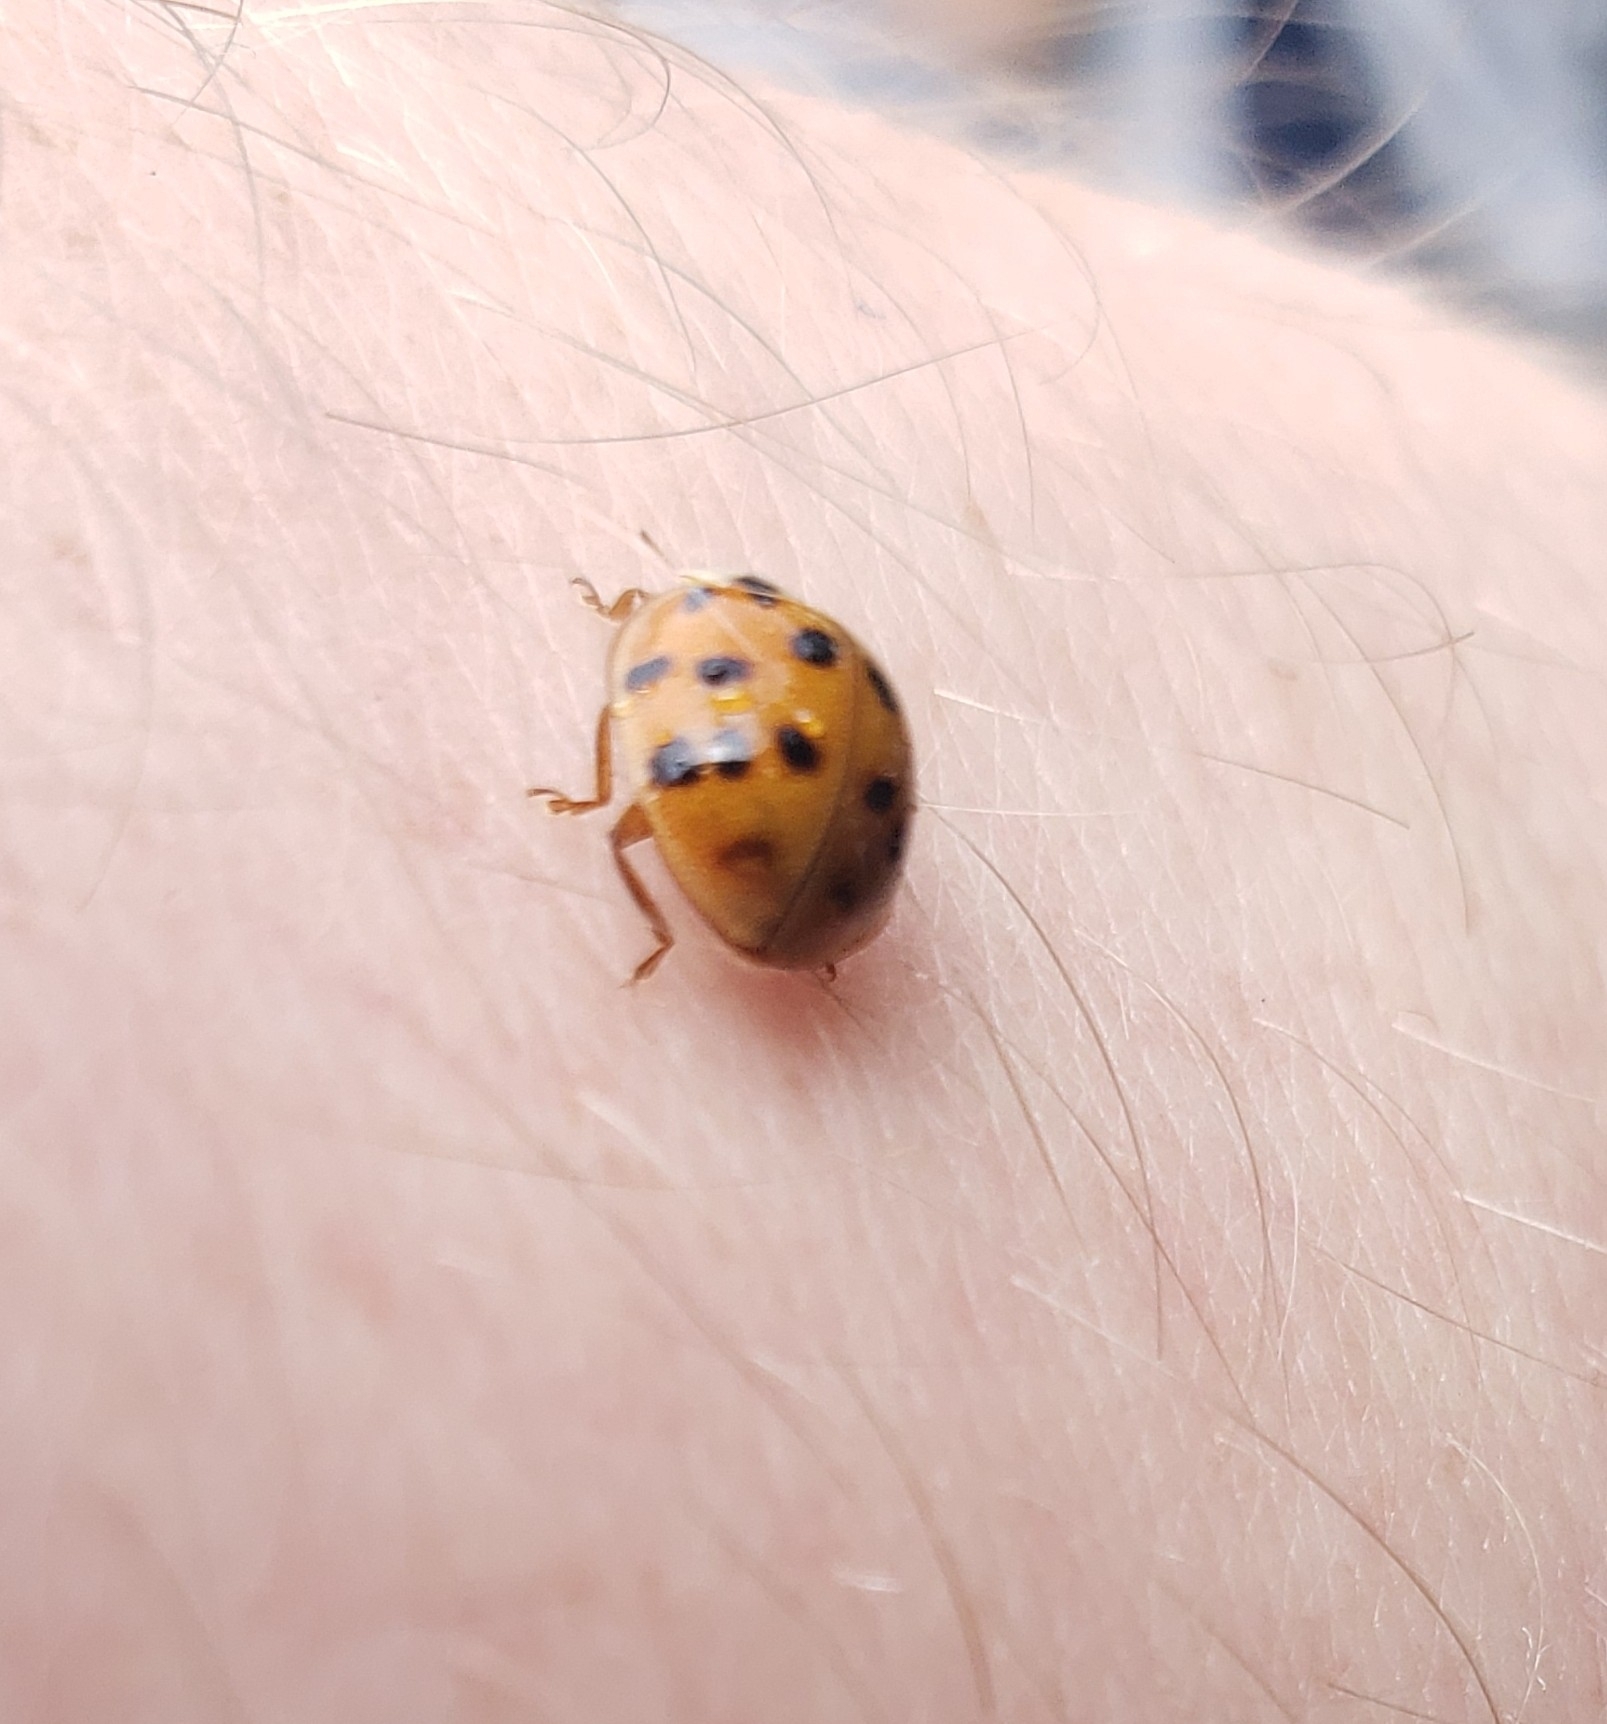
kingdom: Animalia
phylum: Arthropoda
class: Insecta
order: Coleoptera
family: Coccinellidae
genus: Harmonia
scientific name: Harmonia axyridis
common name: Harlequin ladybird
